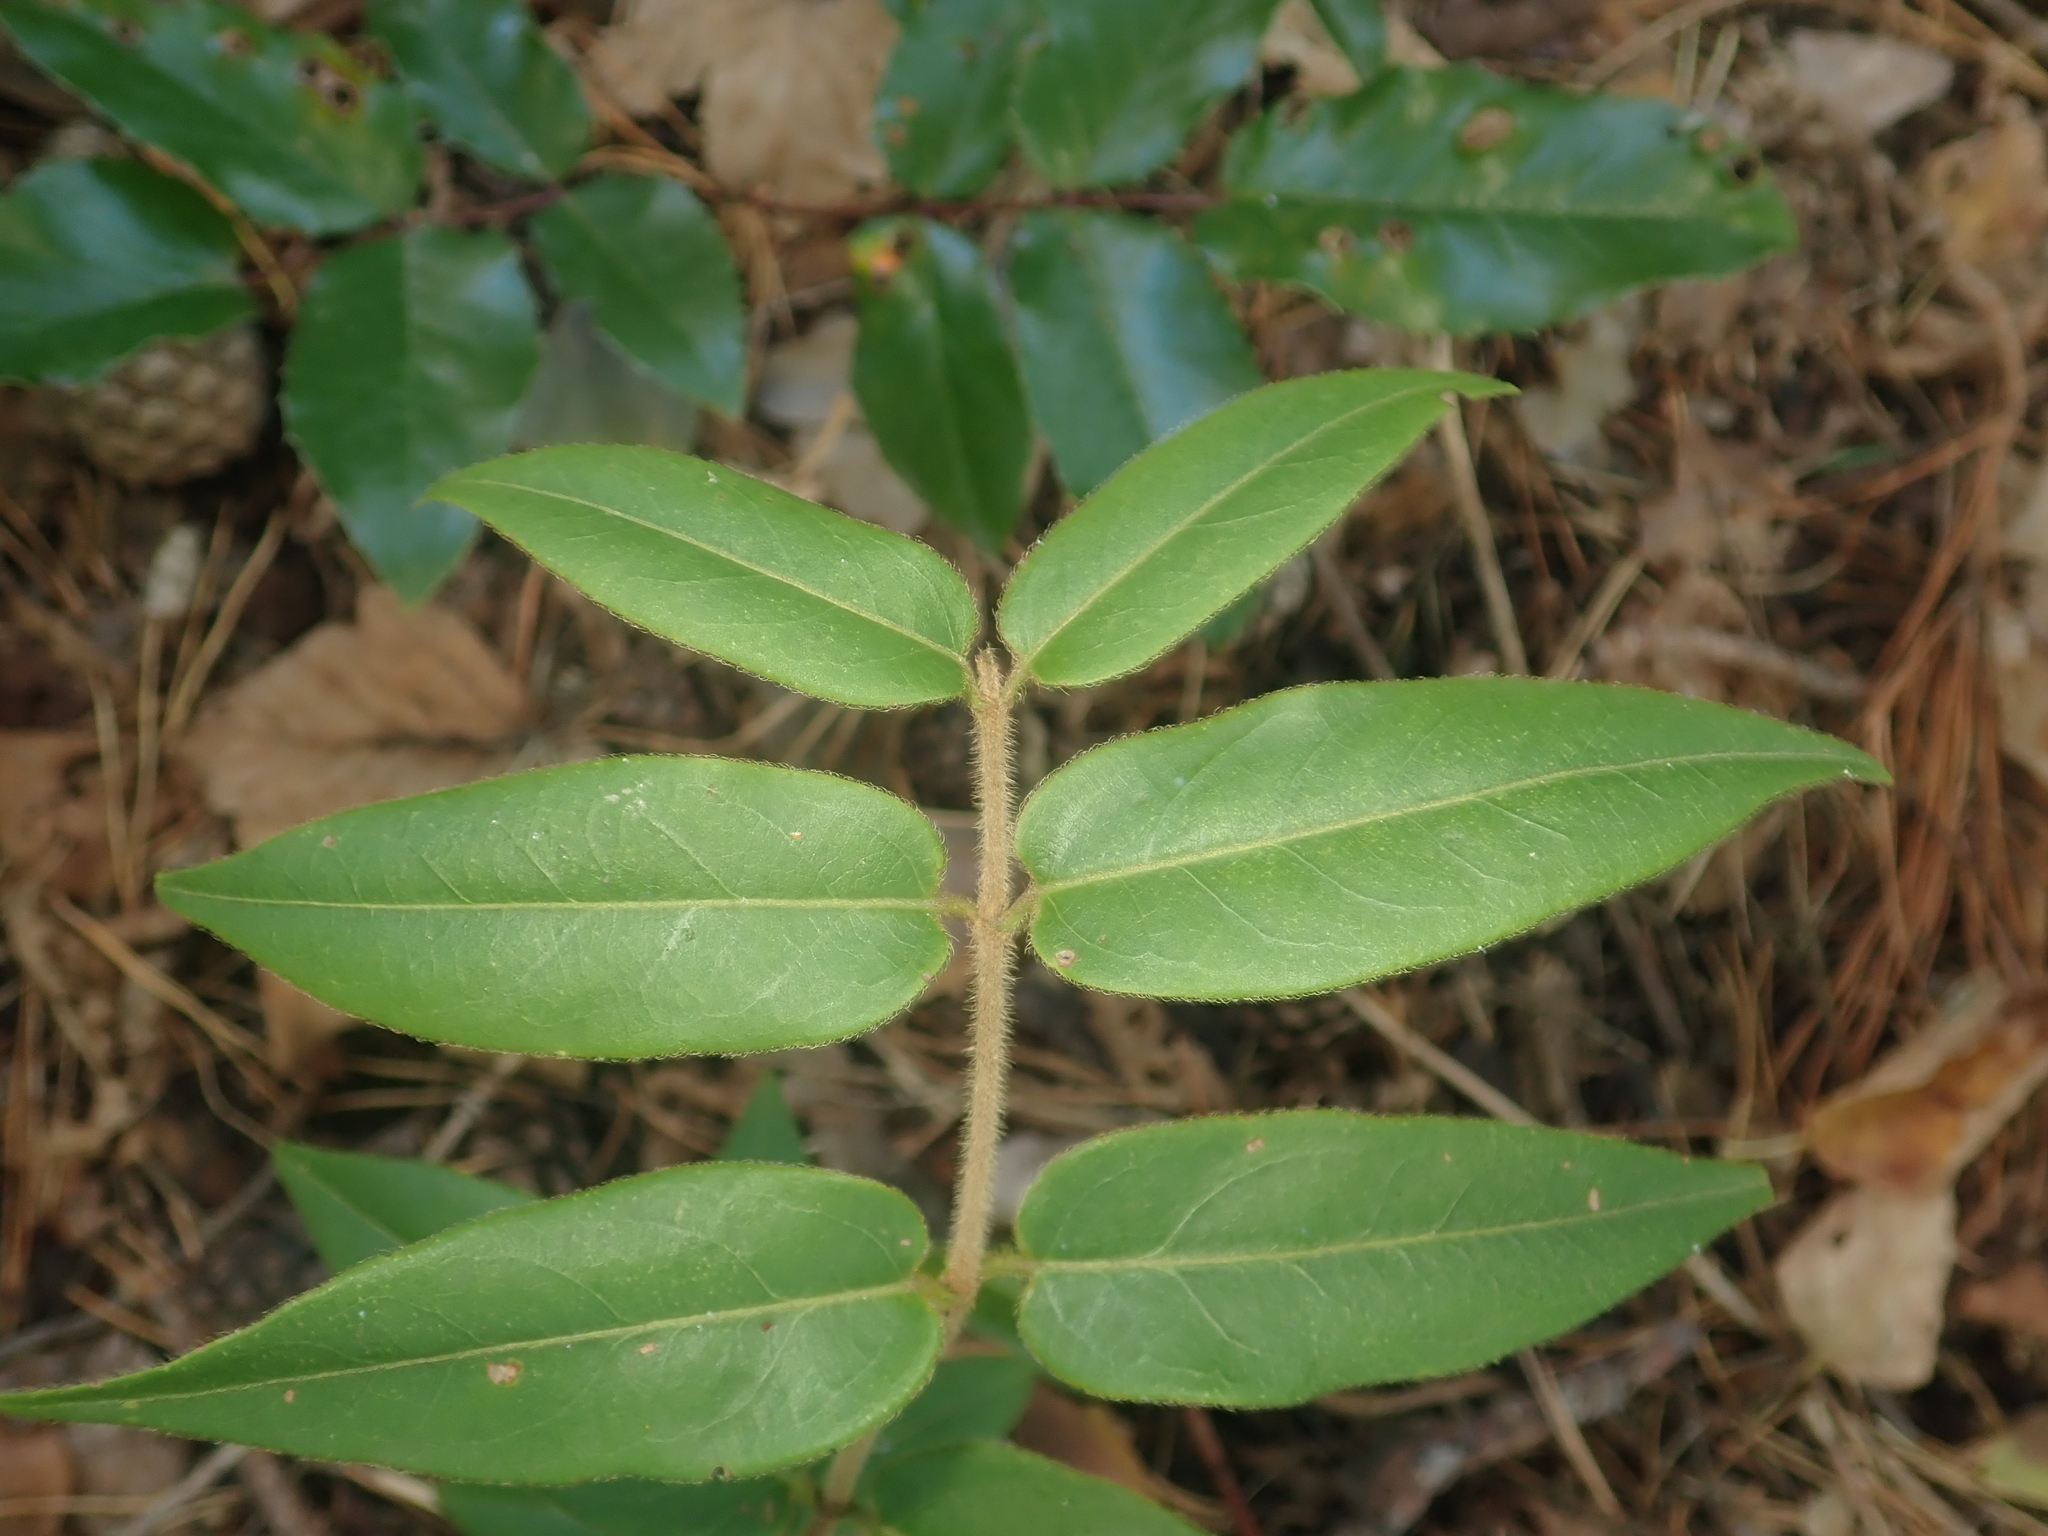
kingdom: Plantae
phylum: Tracheophyta
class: Magnoliopsida
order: Dipsacales
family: Caprifoliaceae
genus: Lonicera
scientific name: Lonicera acuminata
